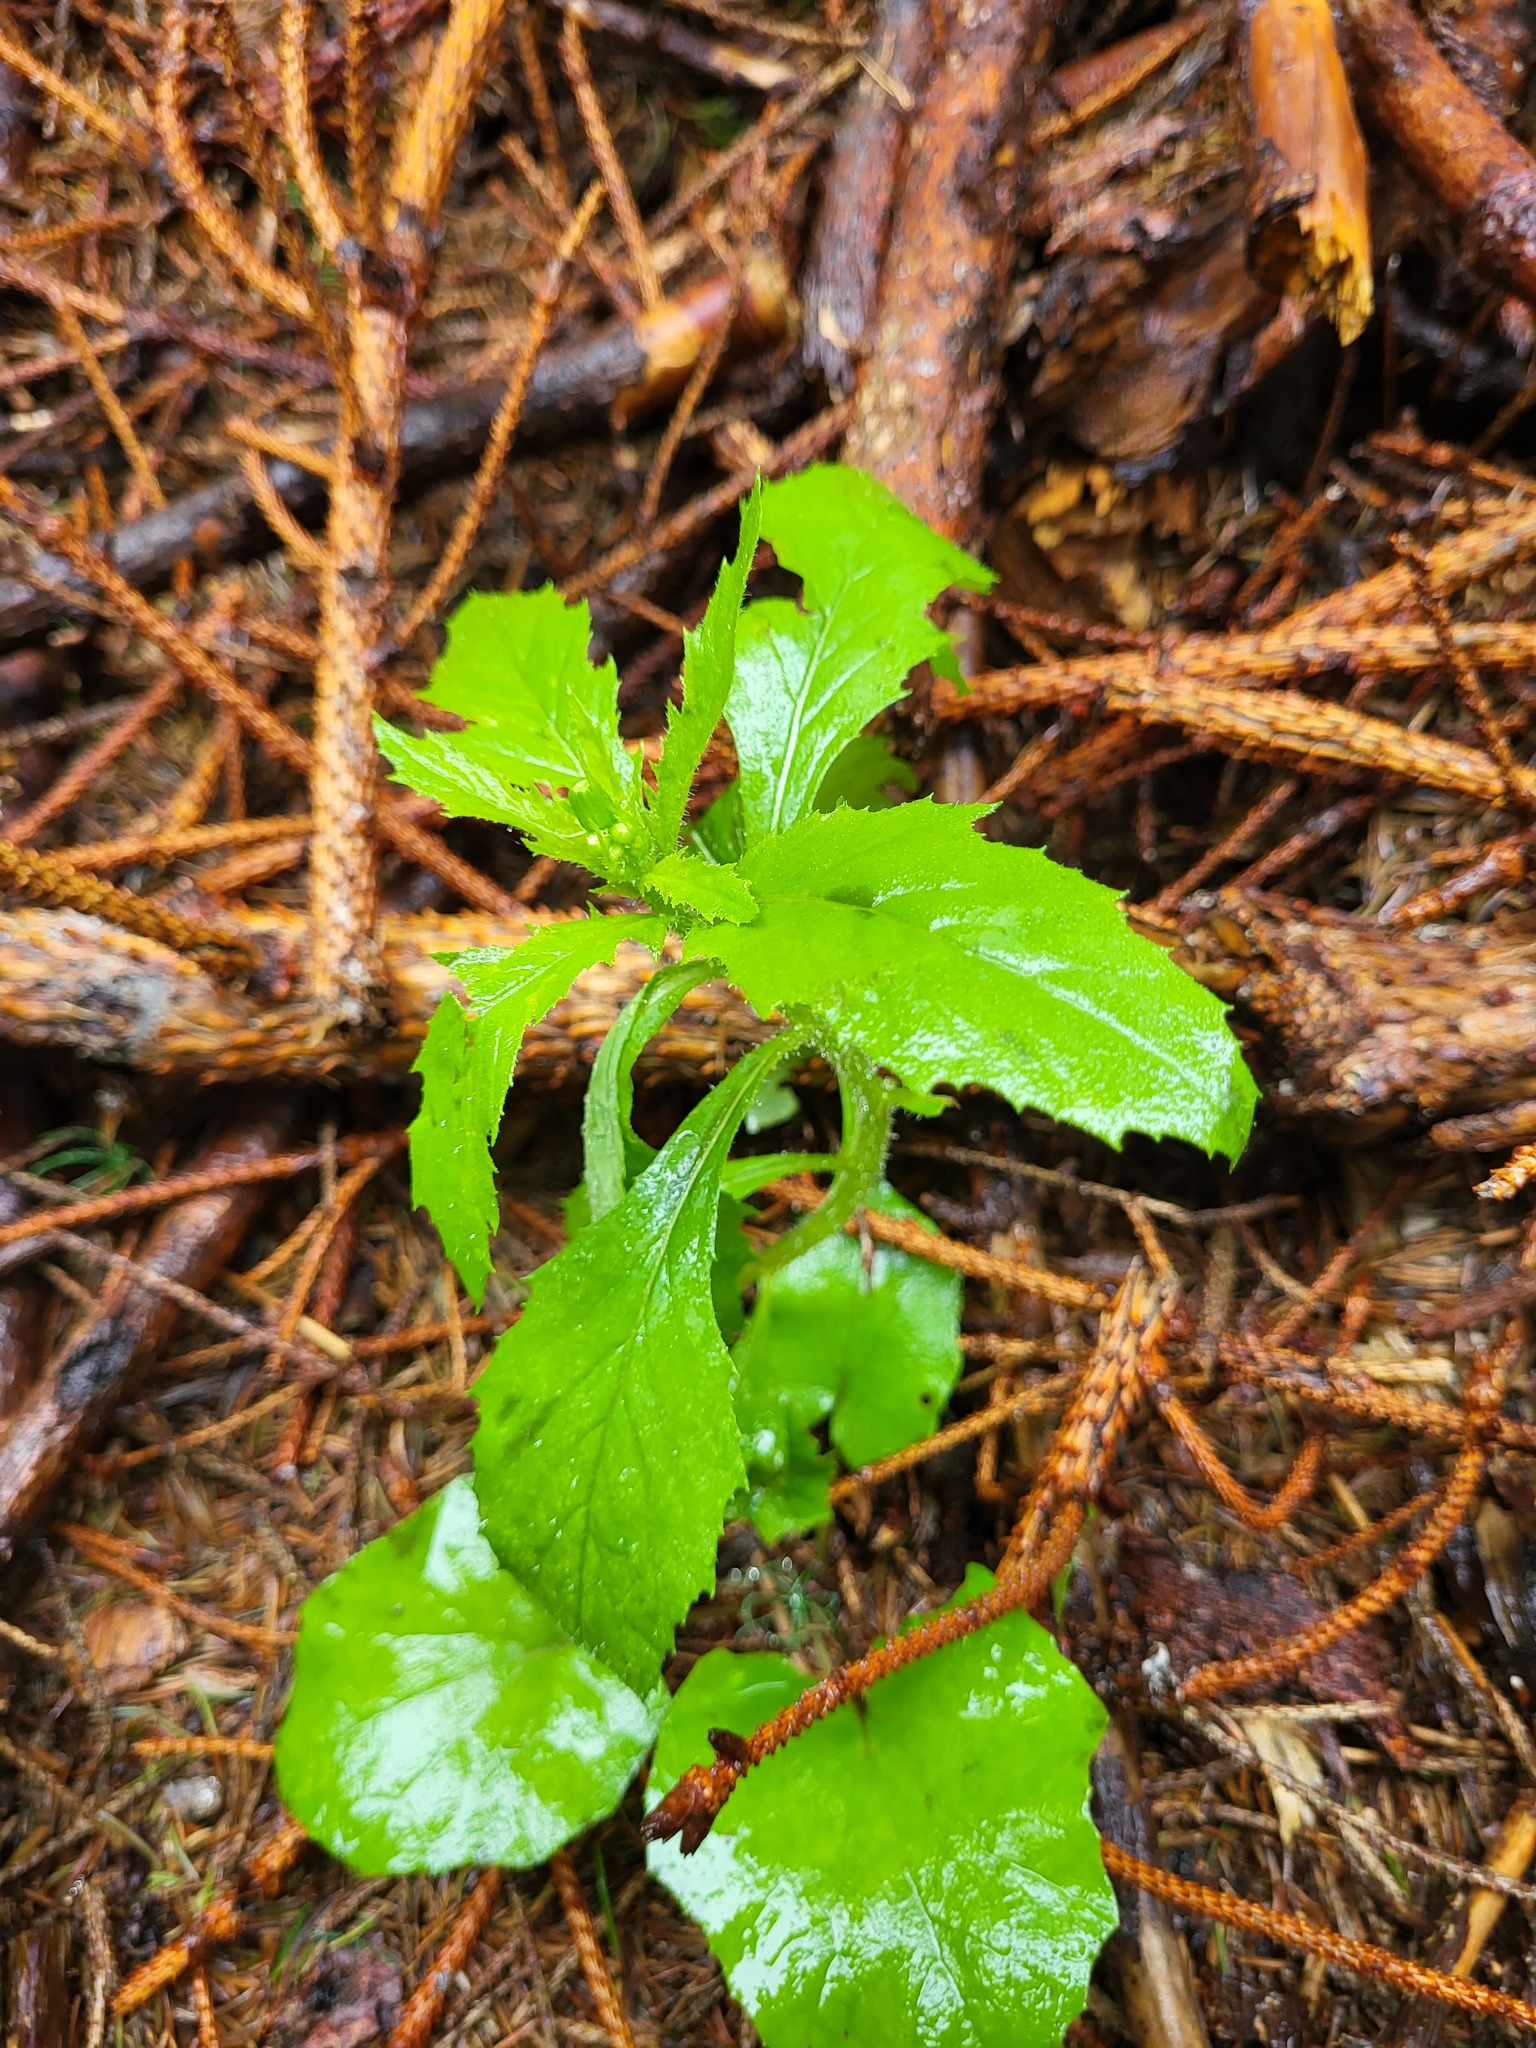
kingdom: Plantae
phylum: Tracheophyta
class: Magnoliopsida
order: Asterales
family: Asteraceae
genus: Erechtites
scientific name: Erechtites hieraciifolius
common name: American burnweed
